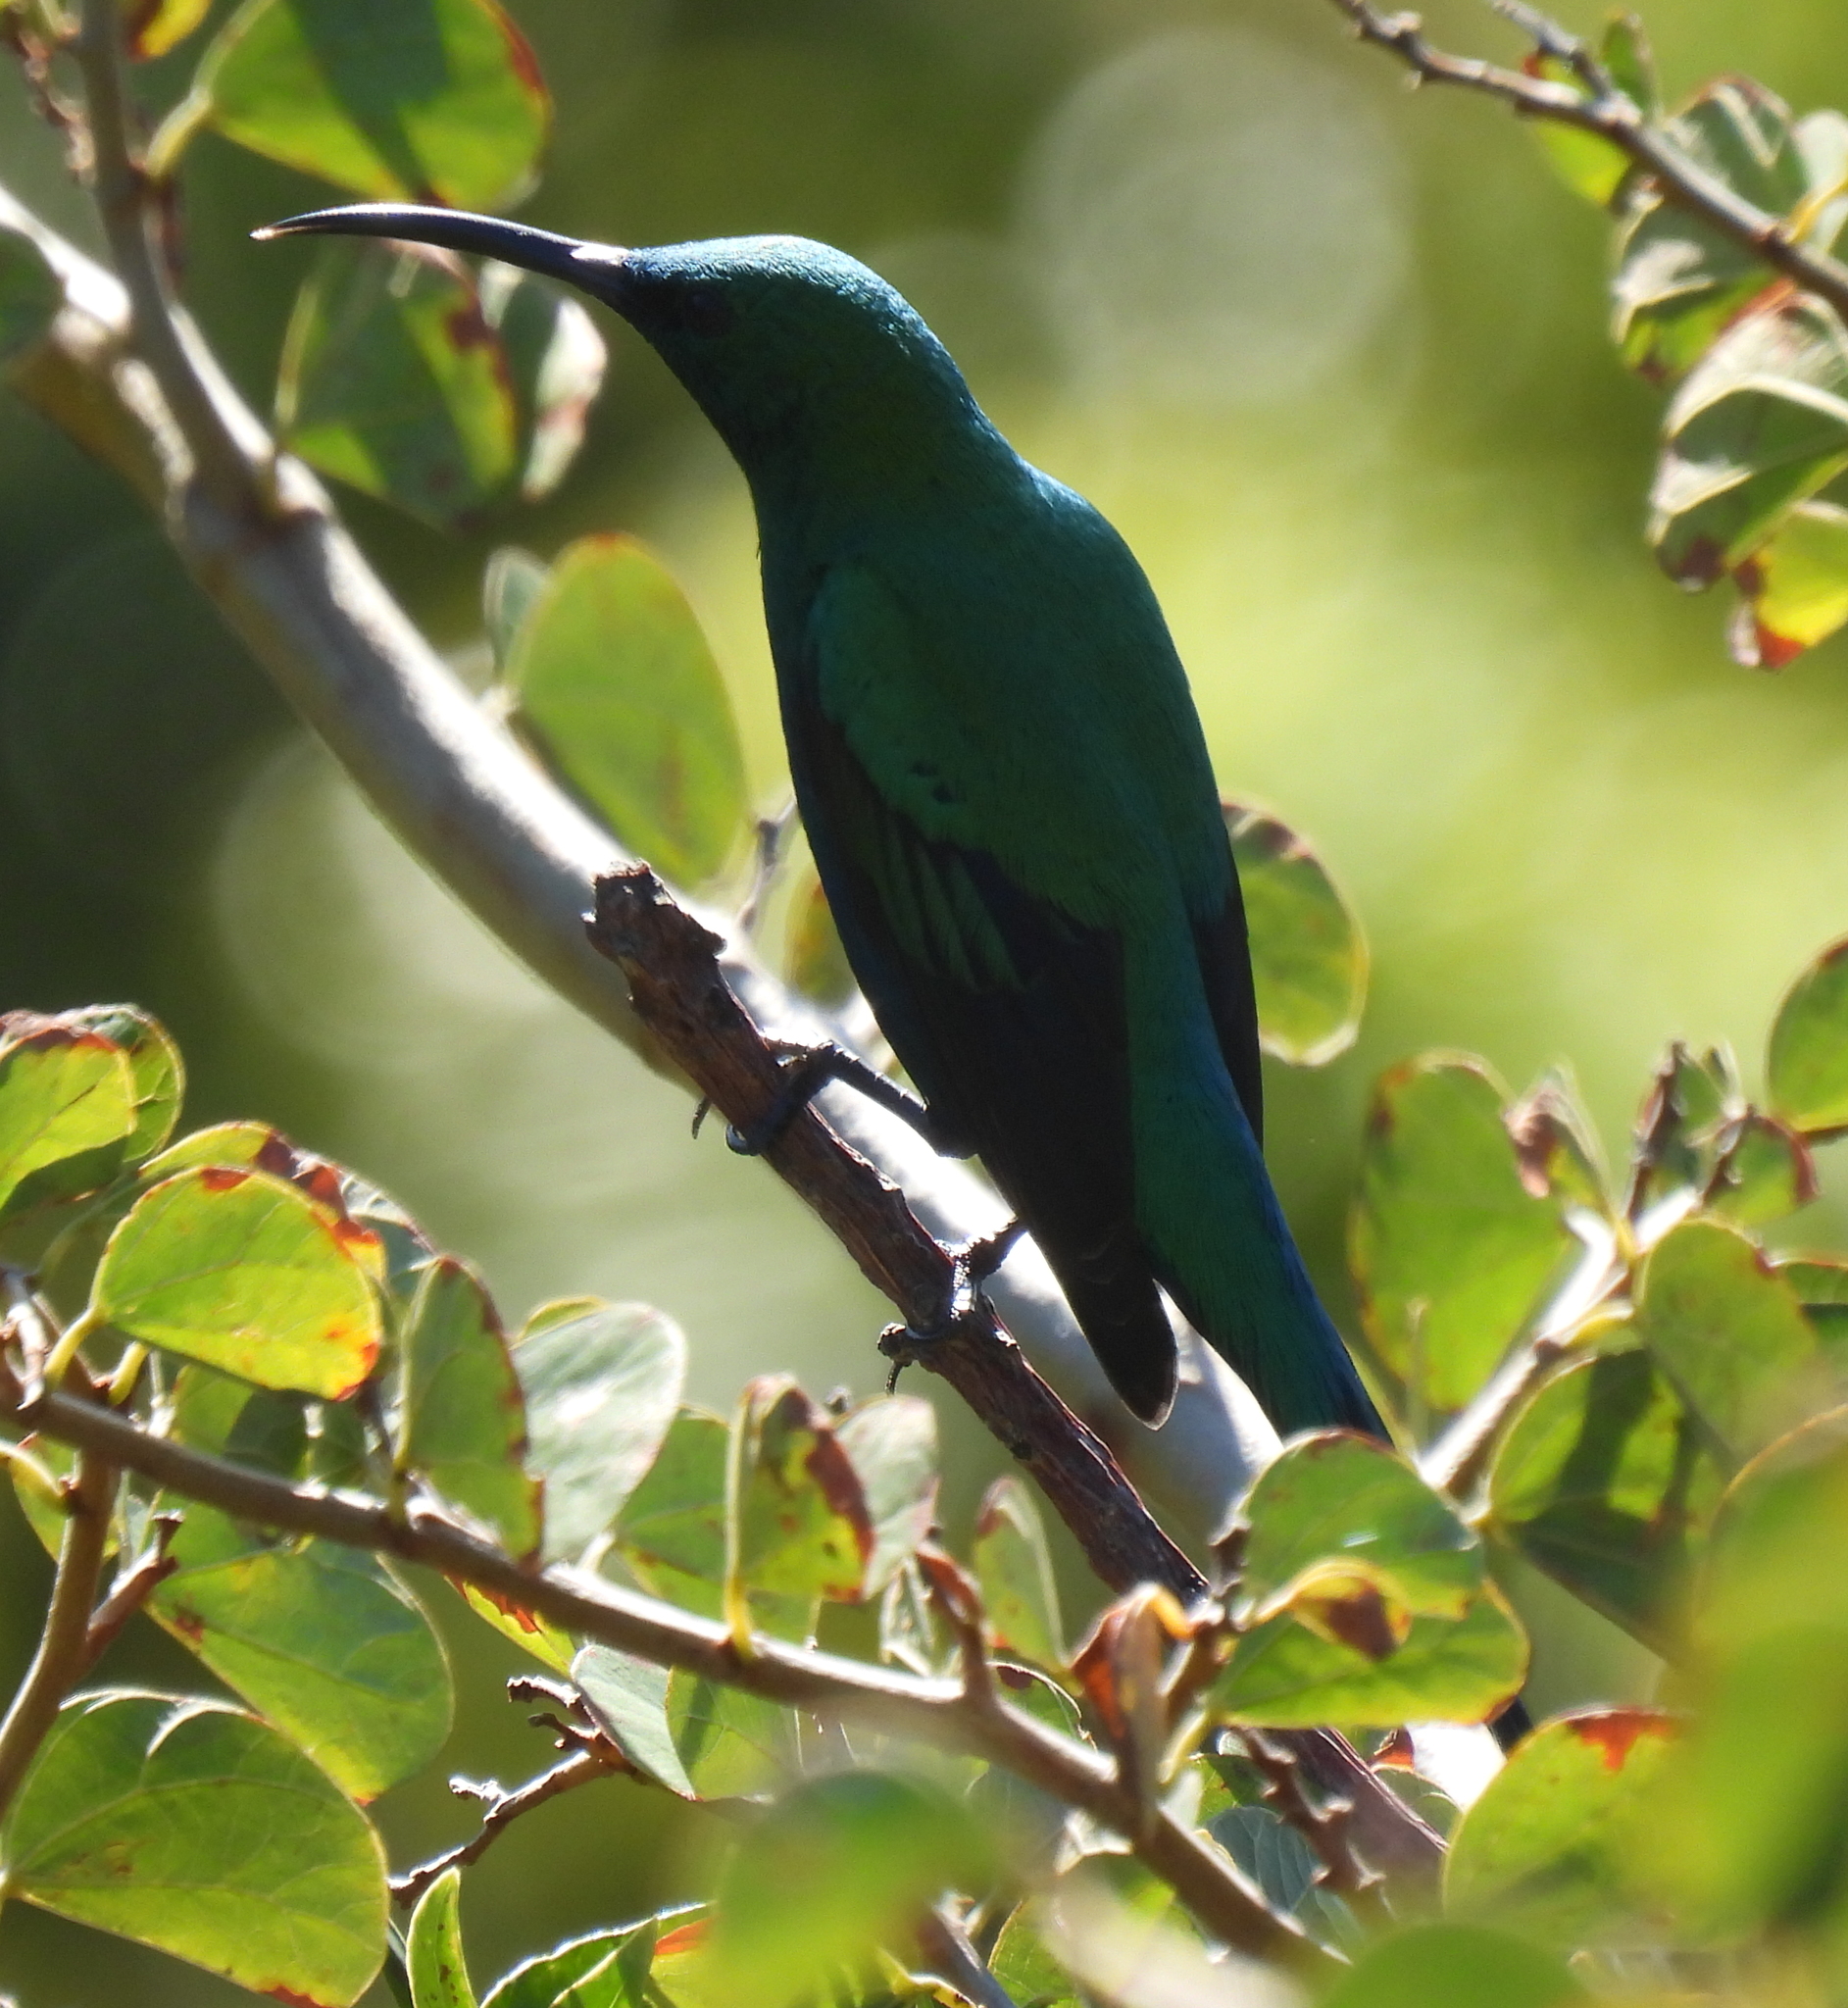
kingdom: Animalia
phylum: Chordata
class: Aves
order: Passeriformes
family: Nectariniidae
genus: Nectarinia
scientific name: Nectarinia famosa
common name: Malachite sunbird
